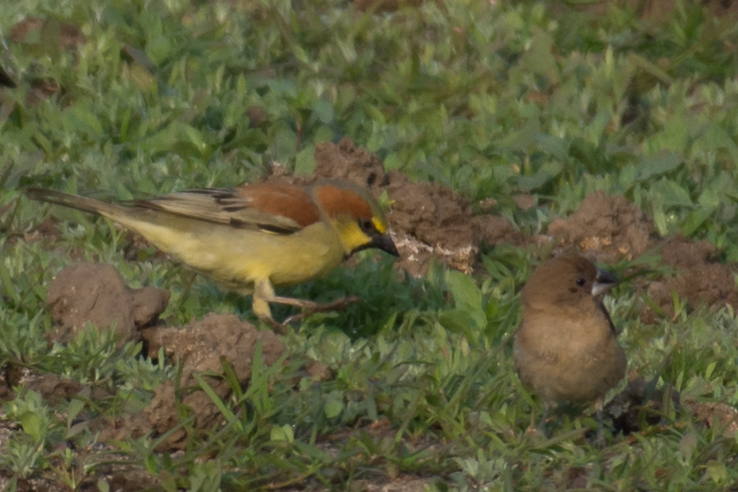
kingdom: Animalia
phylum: Chordata
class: Aves
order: Passeriformes
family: Passeridae
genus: Passer
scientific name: Passer flaveolus
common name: Plain-backed sparrow
